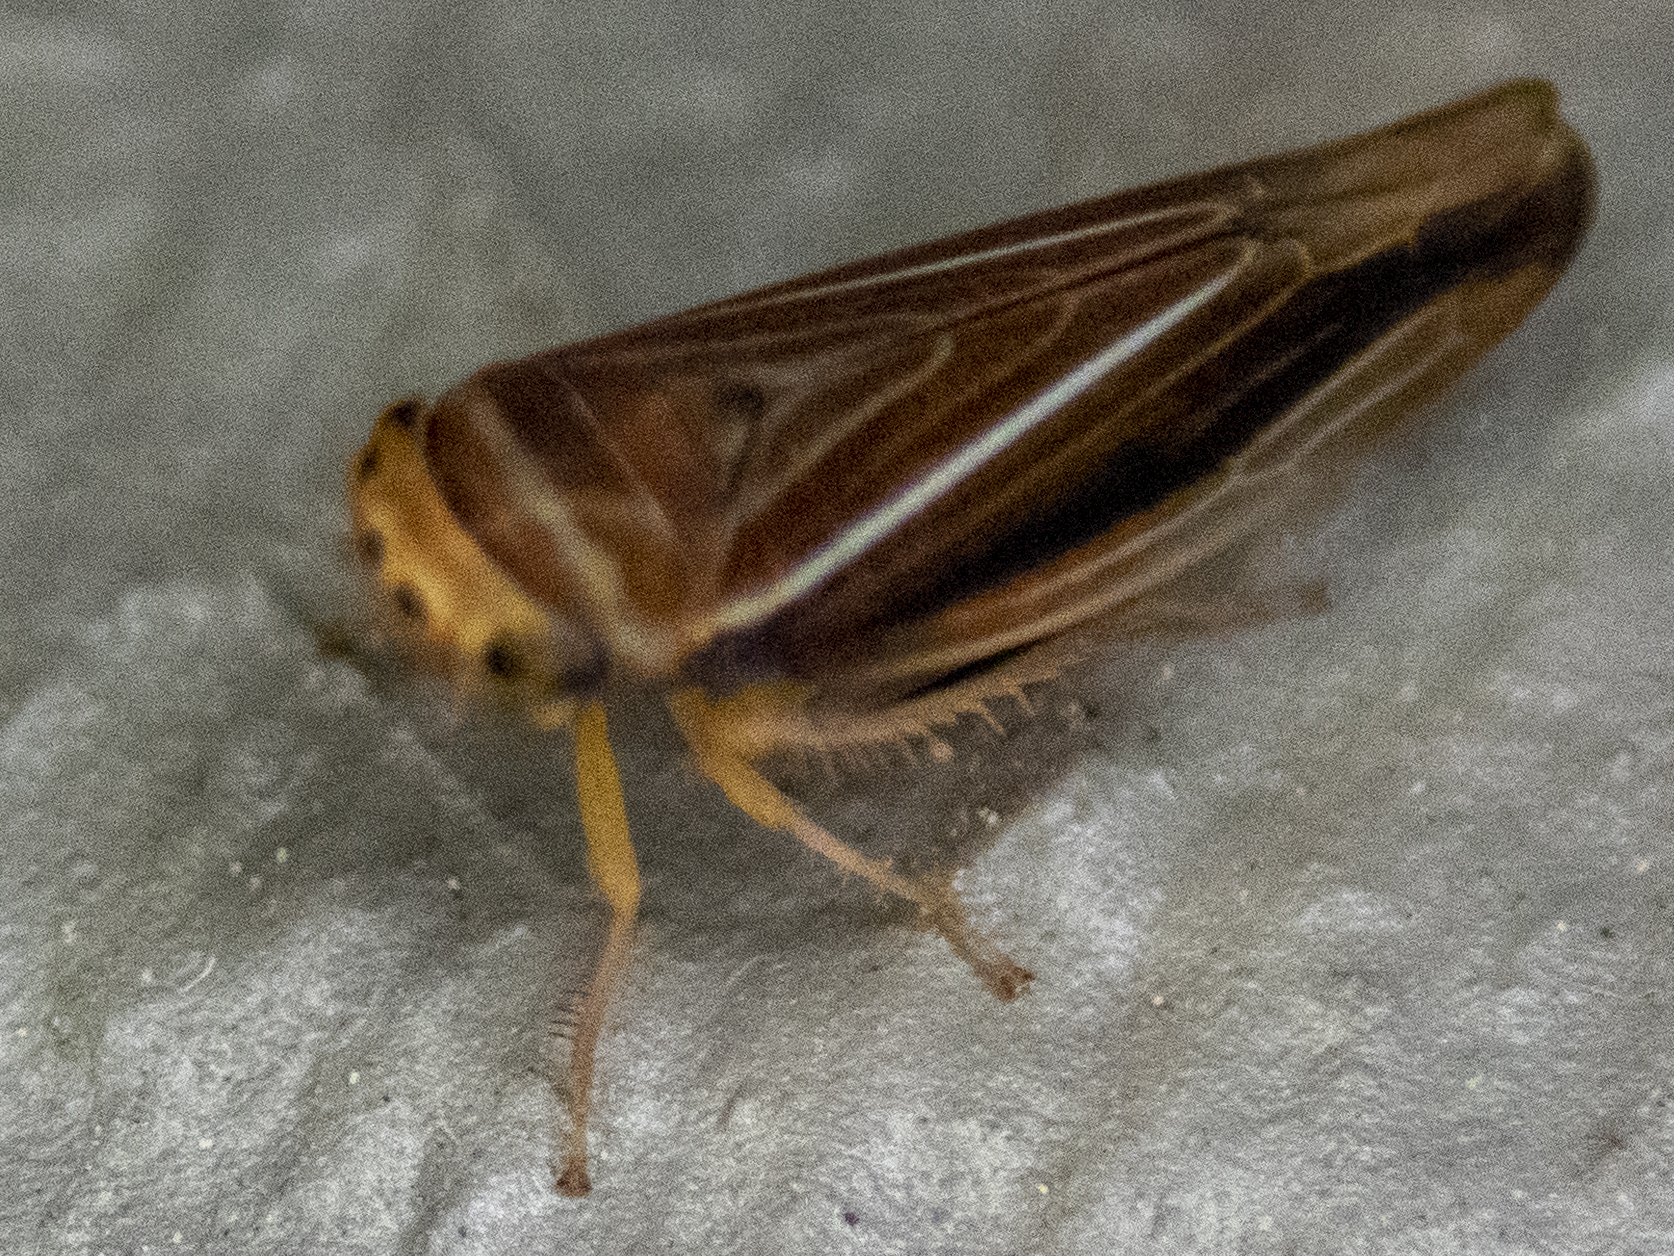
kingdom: Animalia
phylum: Arthropoda
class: Insecta
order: Hemiptera
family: Cicadellidae
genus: Idiodonus
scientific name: Idiodonus kennicotti
